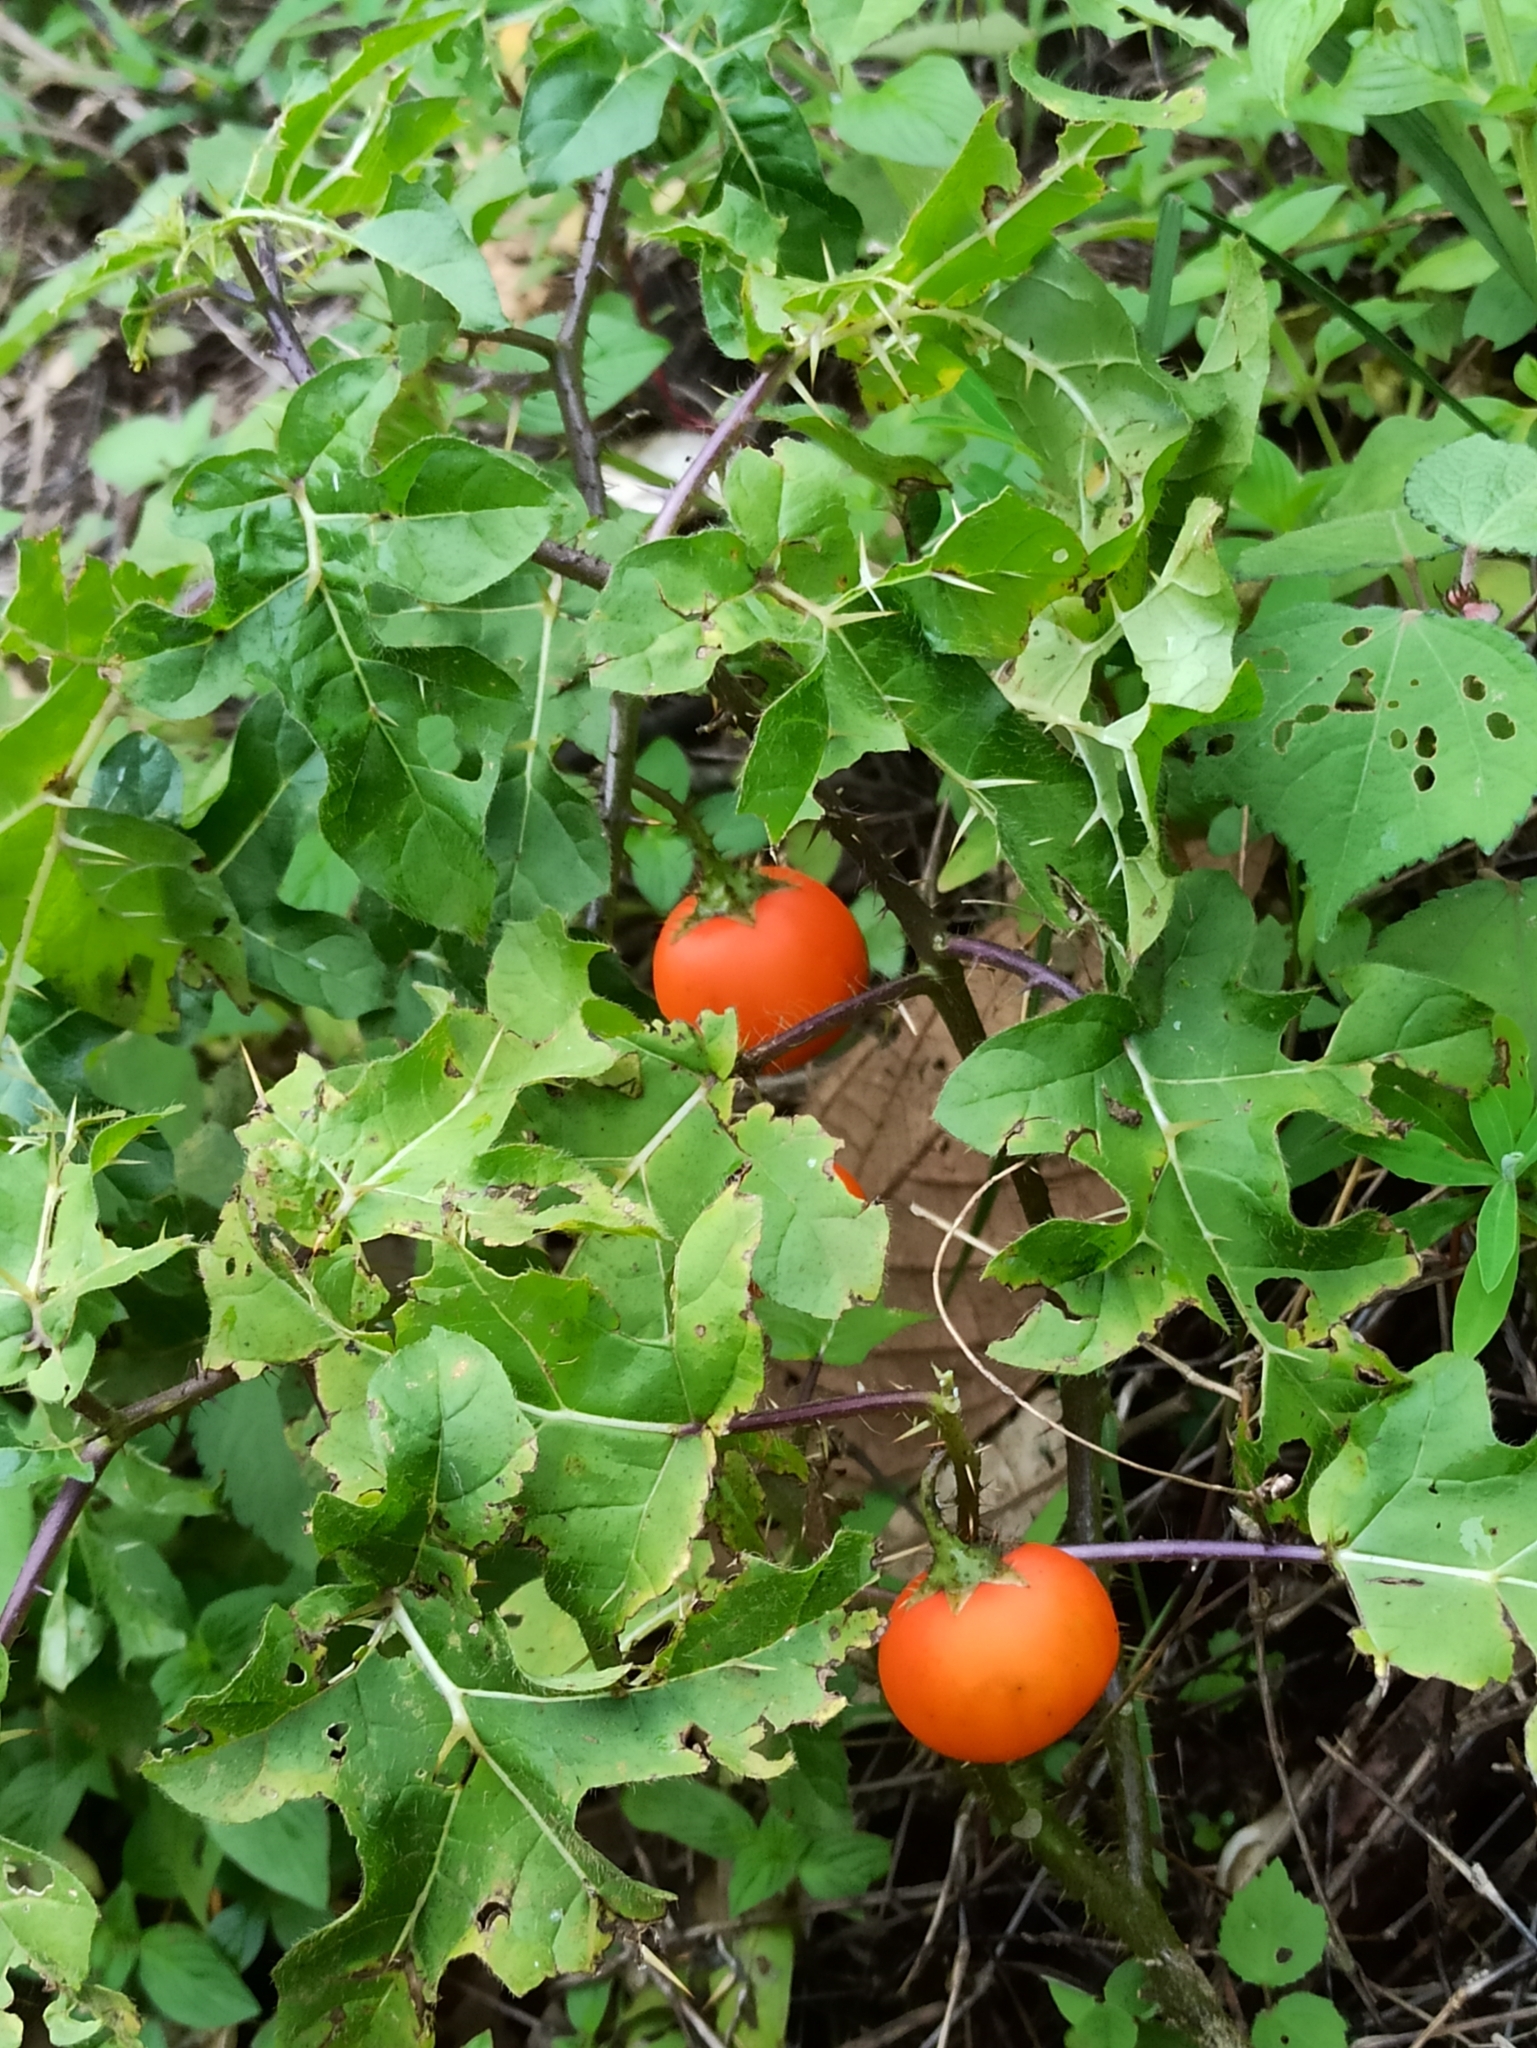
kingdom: Plantae
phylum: Tracheophyta
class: Magnoliopsida
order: Solanales
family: Solanaceae
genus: Solanum
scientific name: Solanum capsicoides
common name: Cockroach berry
